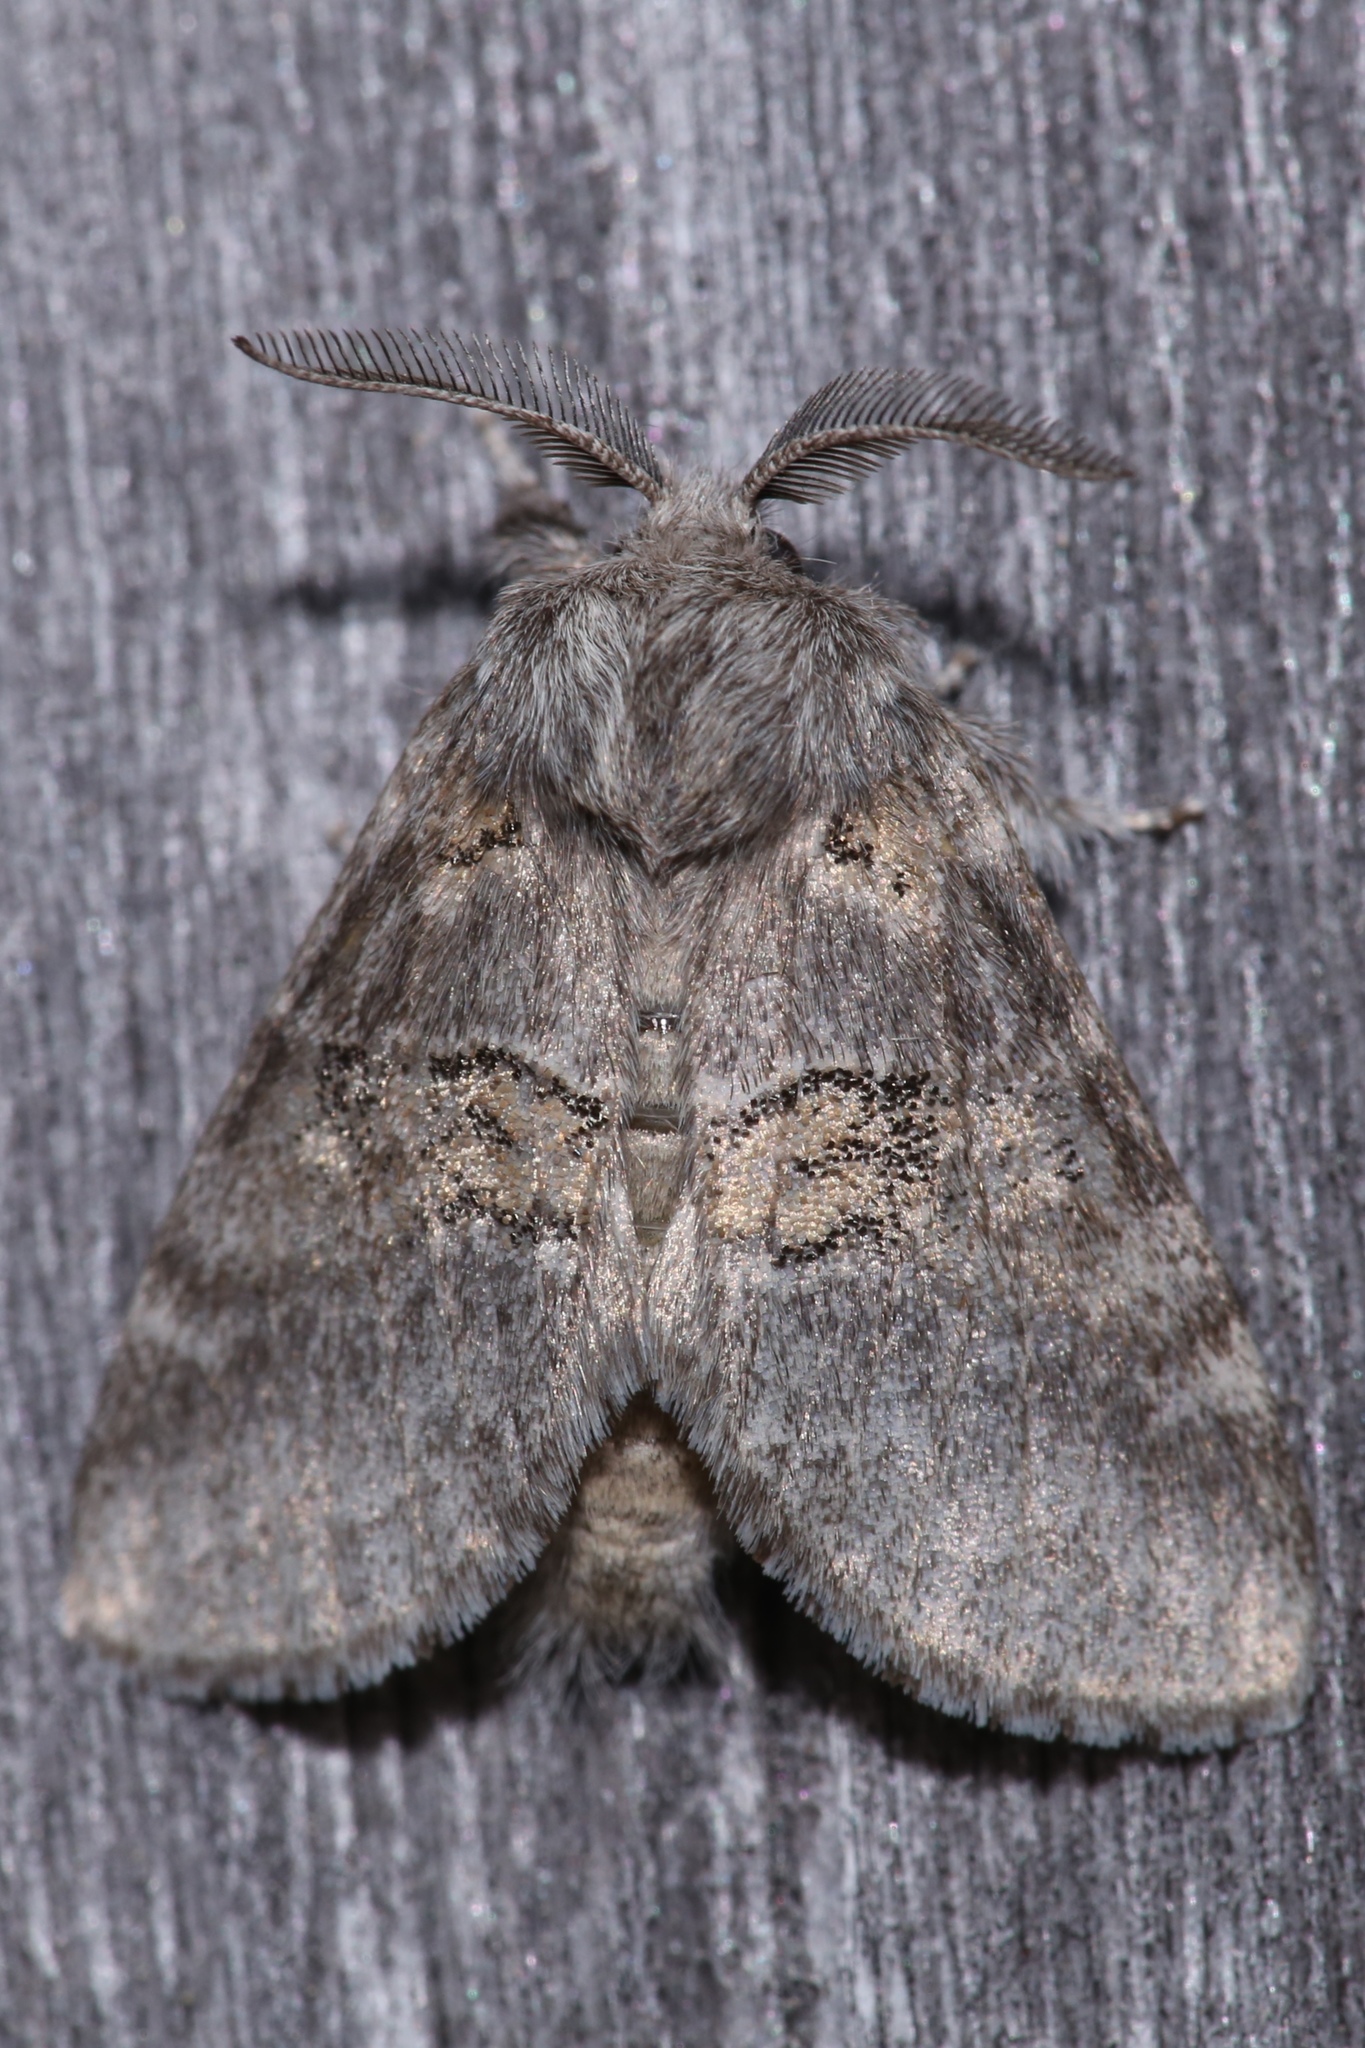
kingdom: Animalia
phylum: Arthropoda
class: Insecta
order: Lepidoptera
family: Notodontidae
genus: Gluphisia
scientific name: Gluphisia septentrionis
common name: Common gluphisia
